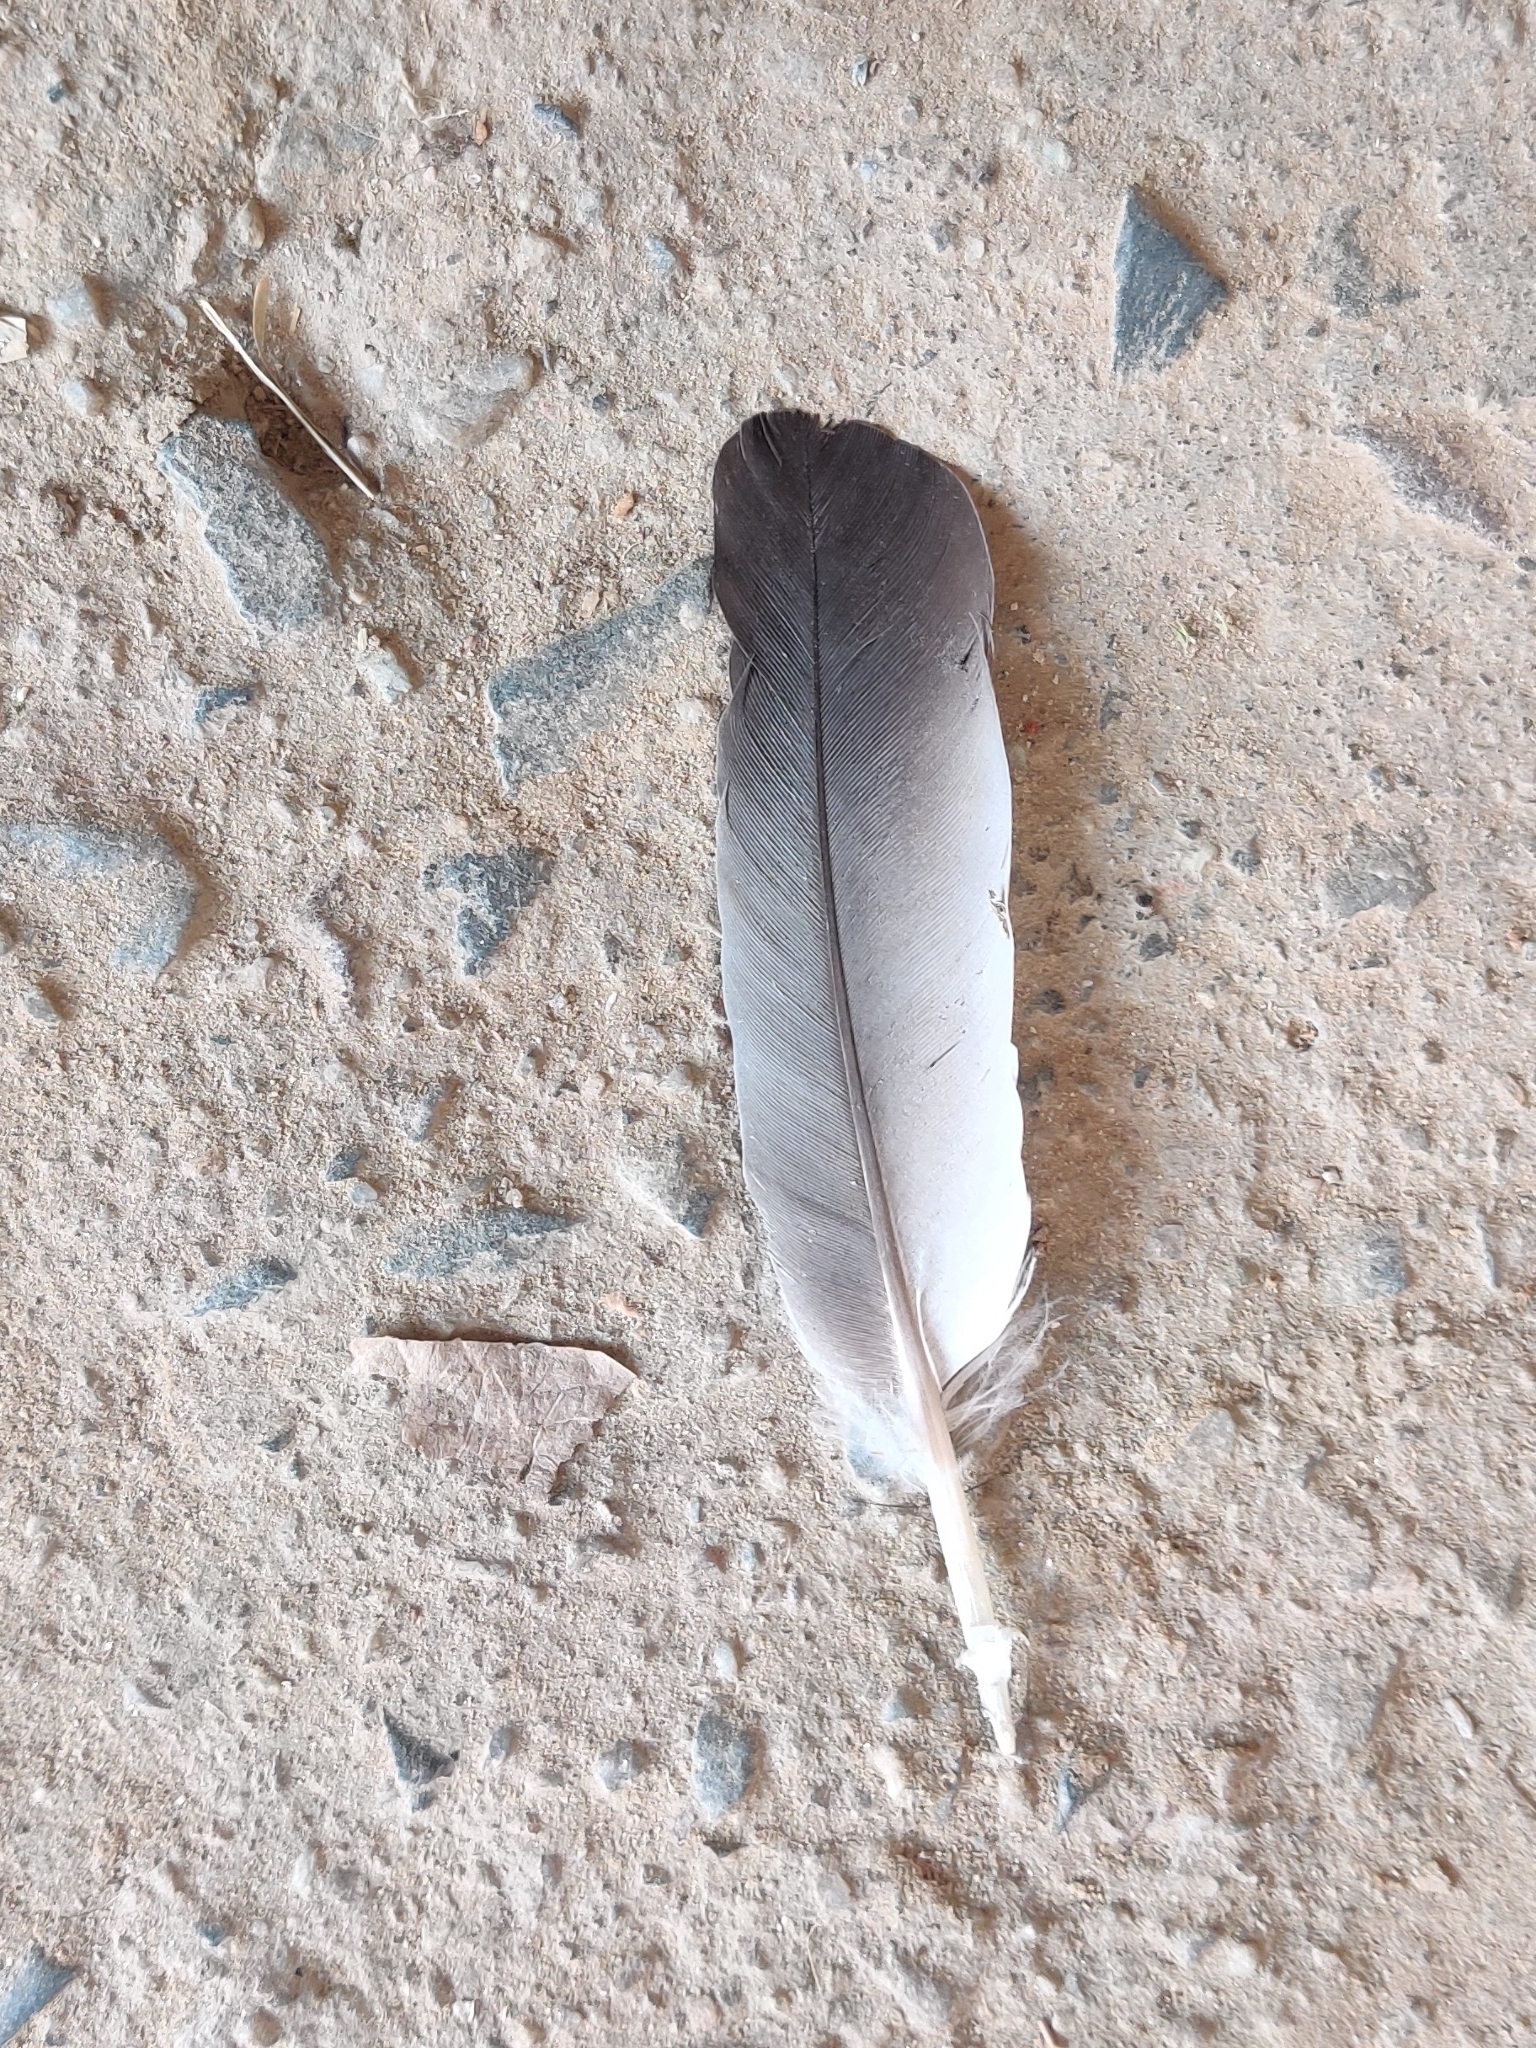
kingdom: Animalia
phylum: Chordata
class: Aves
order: Columbiformes
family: Columbidae
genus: Columba
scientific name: Columba livia
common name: Rock pigeon
